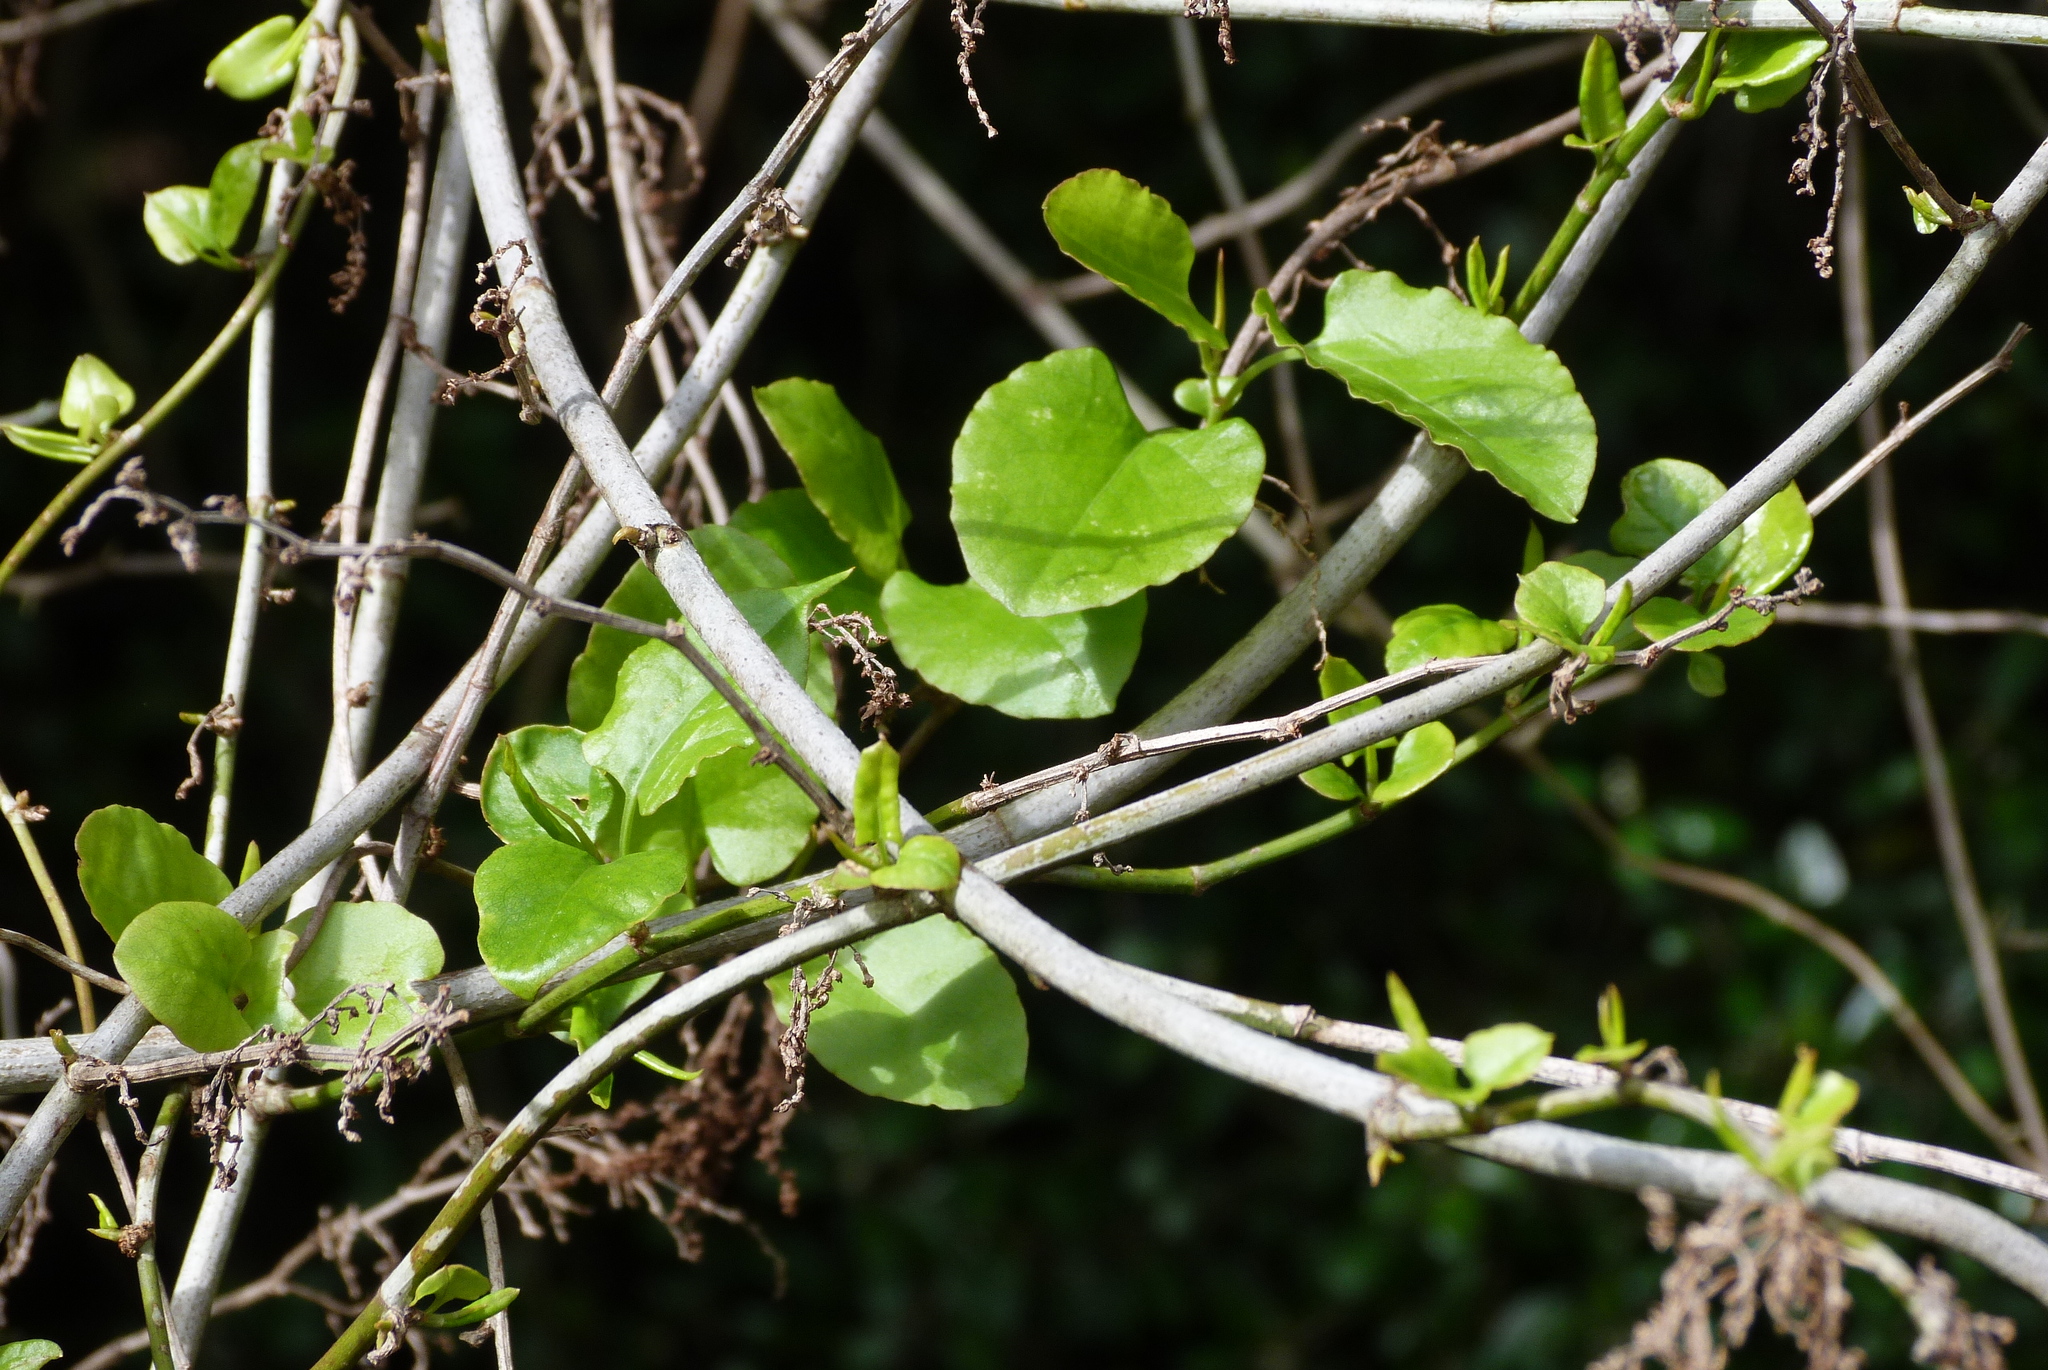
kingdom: Plantae
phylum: Tracheophyta
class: Magnoliopsida
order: Caryophyllales
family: Polygonaceae
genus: Muehlenbeckia
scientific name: Muehlenbeckia australis
